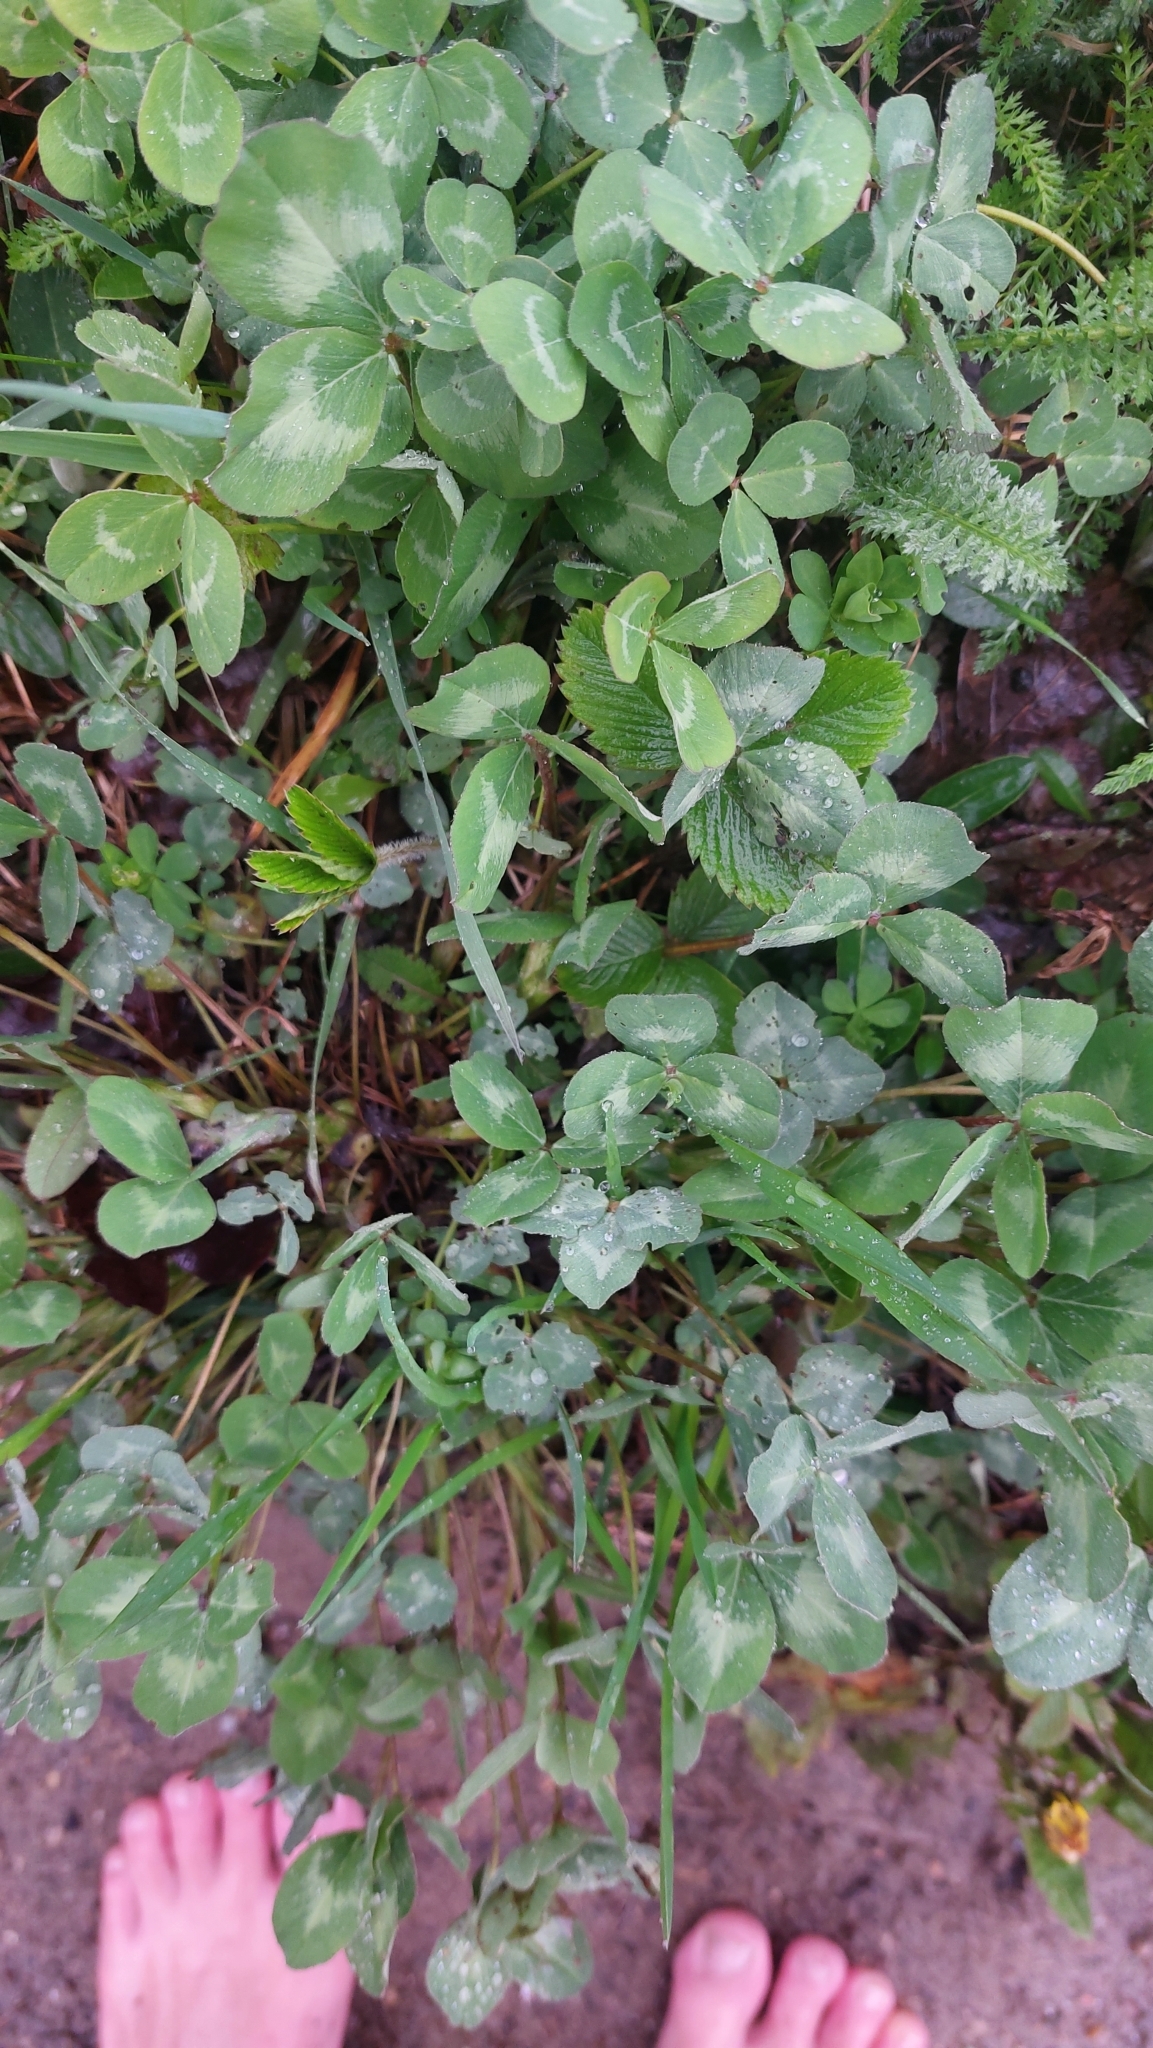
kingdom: Plantae
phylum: Tracheophyta
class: Magnoliopsida
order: Fabales
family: Fabaceae
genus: Trifolium
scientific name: Trifolium pratense
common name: Red clover
